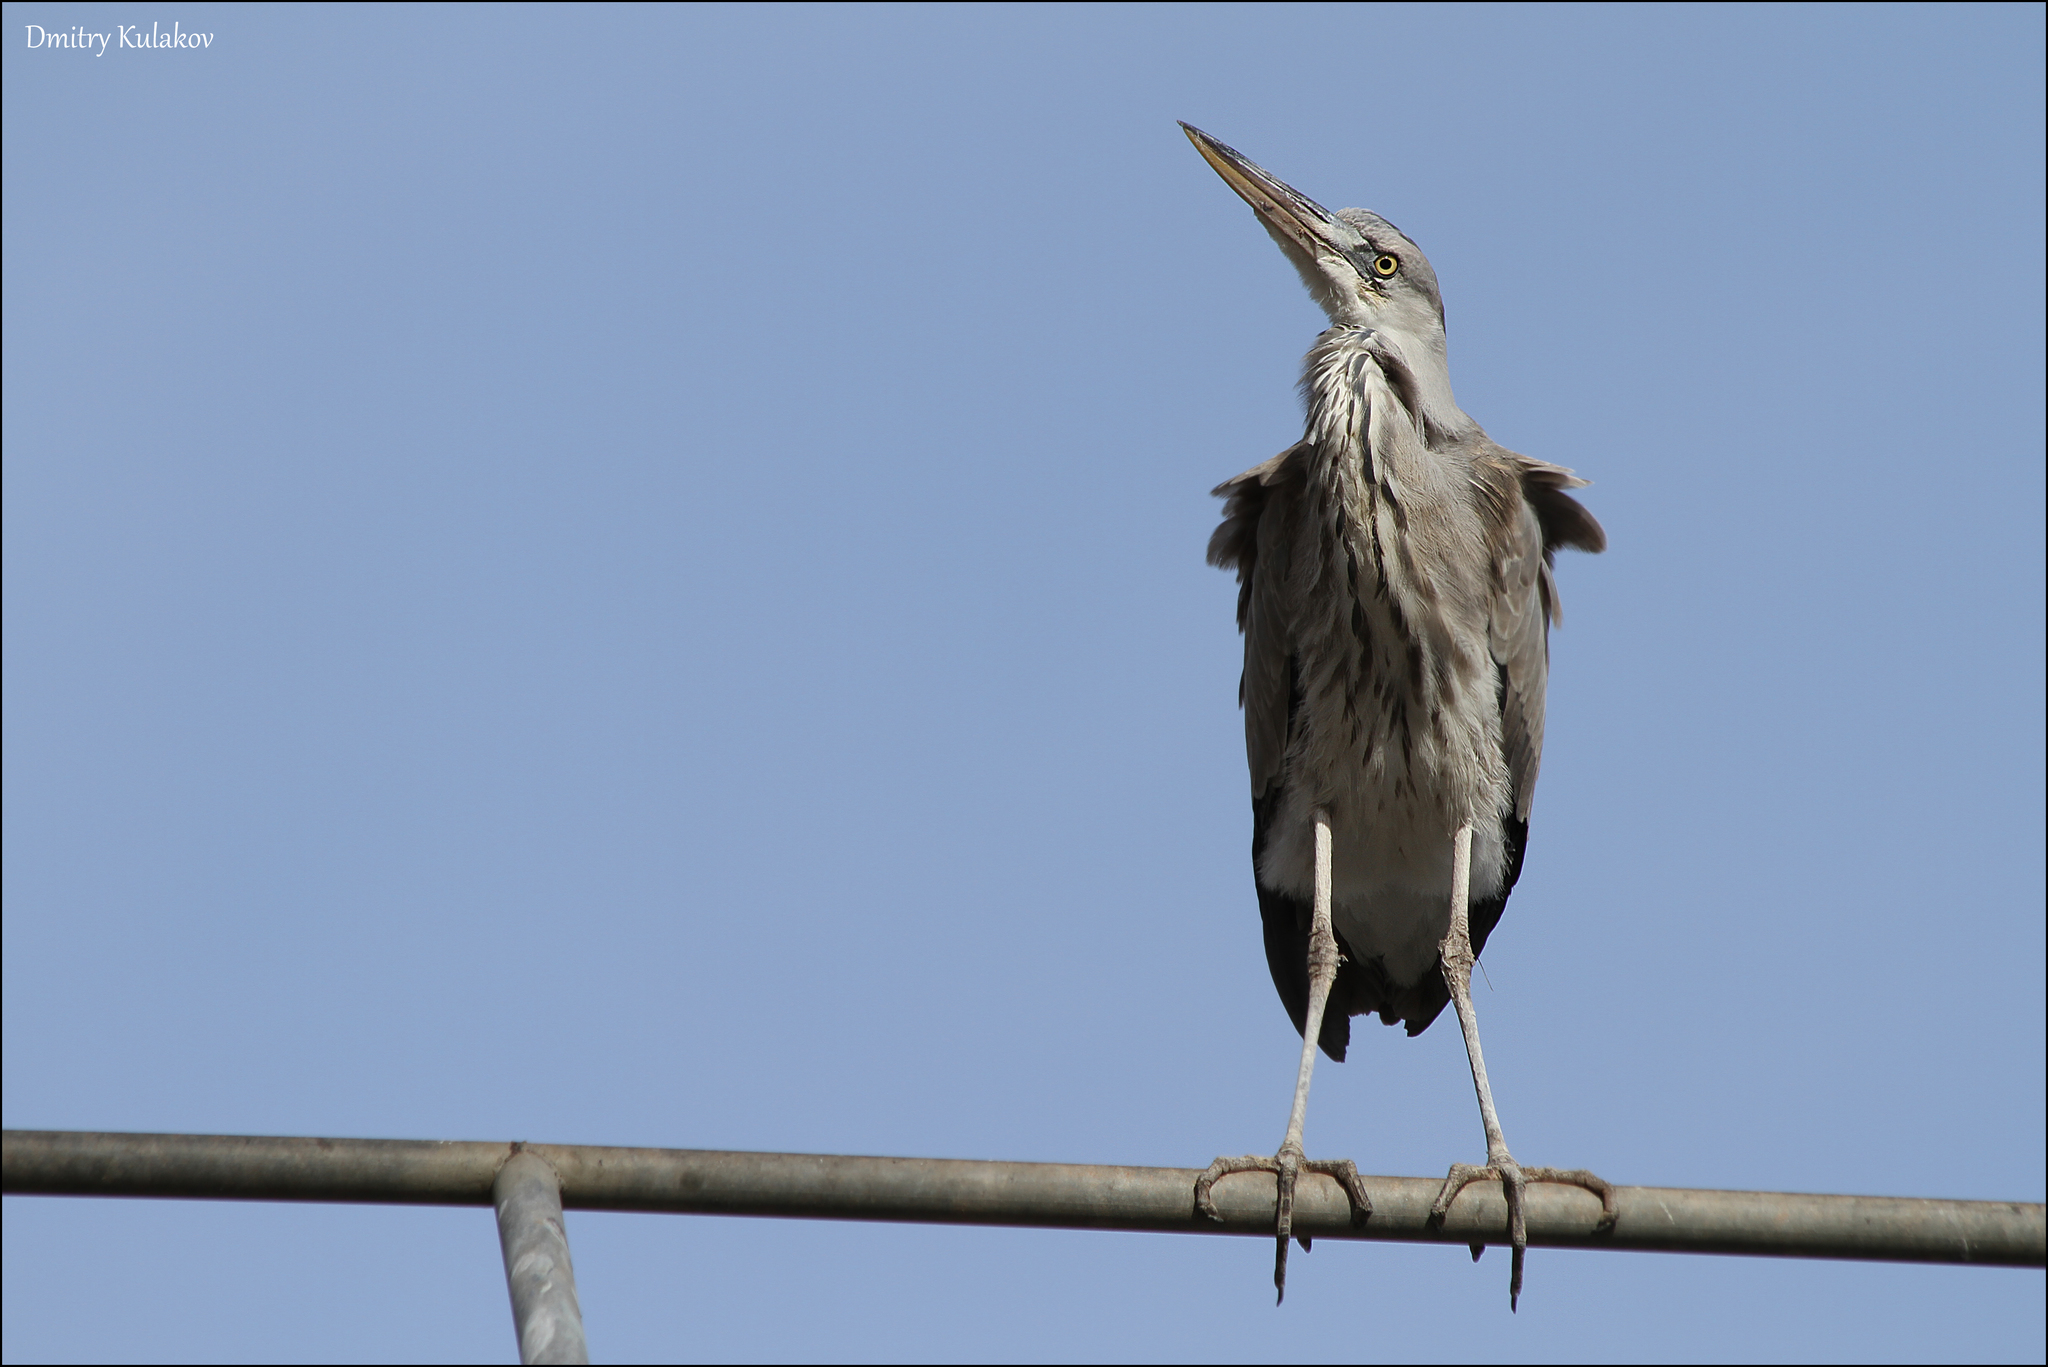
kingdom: Animalia
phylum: Chordata
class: Aves
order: Pelecaniformes
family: Ardeidae
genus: Ardea
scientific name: Ardea cinerea
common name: Grey heron
